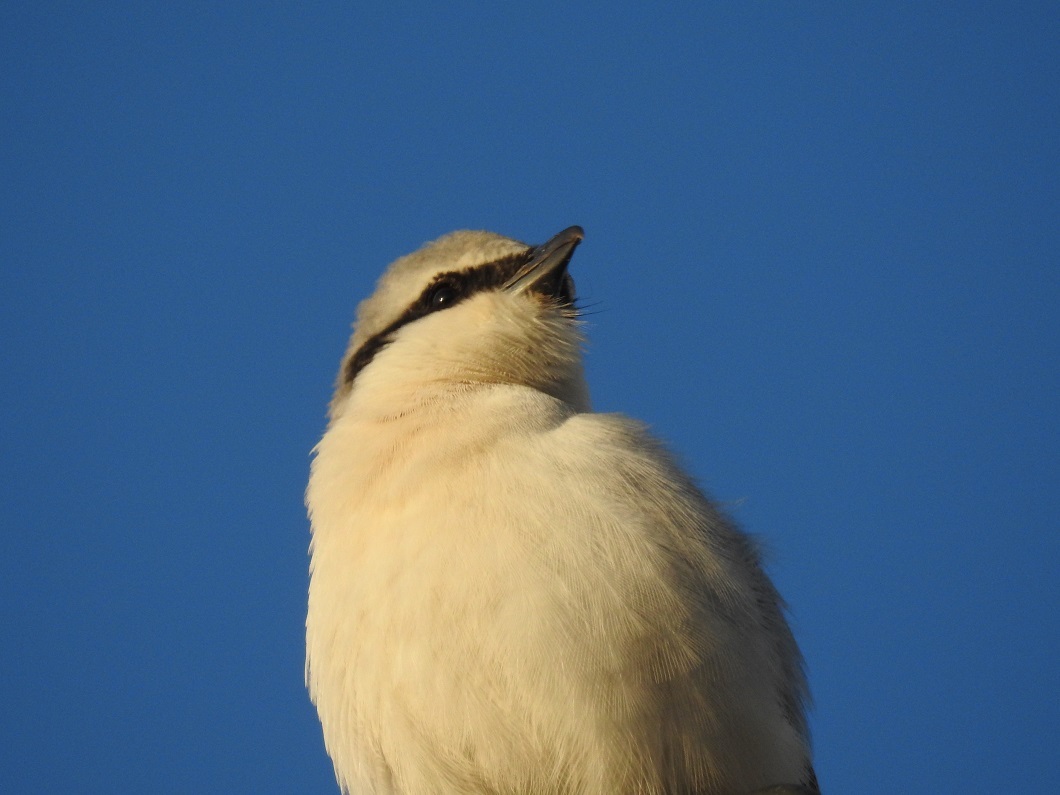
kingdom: Animalia
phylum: Chordata
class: Aves
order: Passeriformes
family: Laniidae
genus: Lanius
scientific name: Lanius excubitor
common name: Great grey shrike
